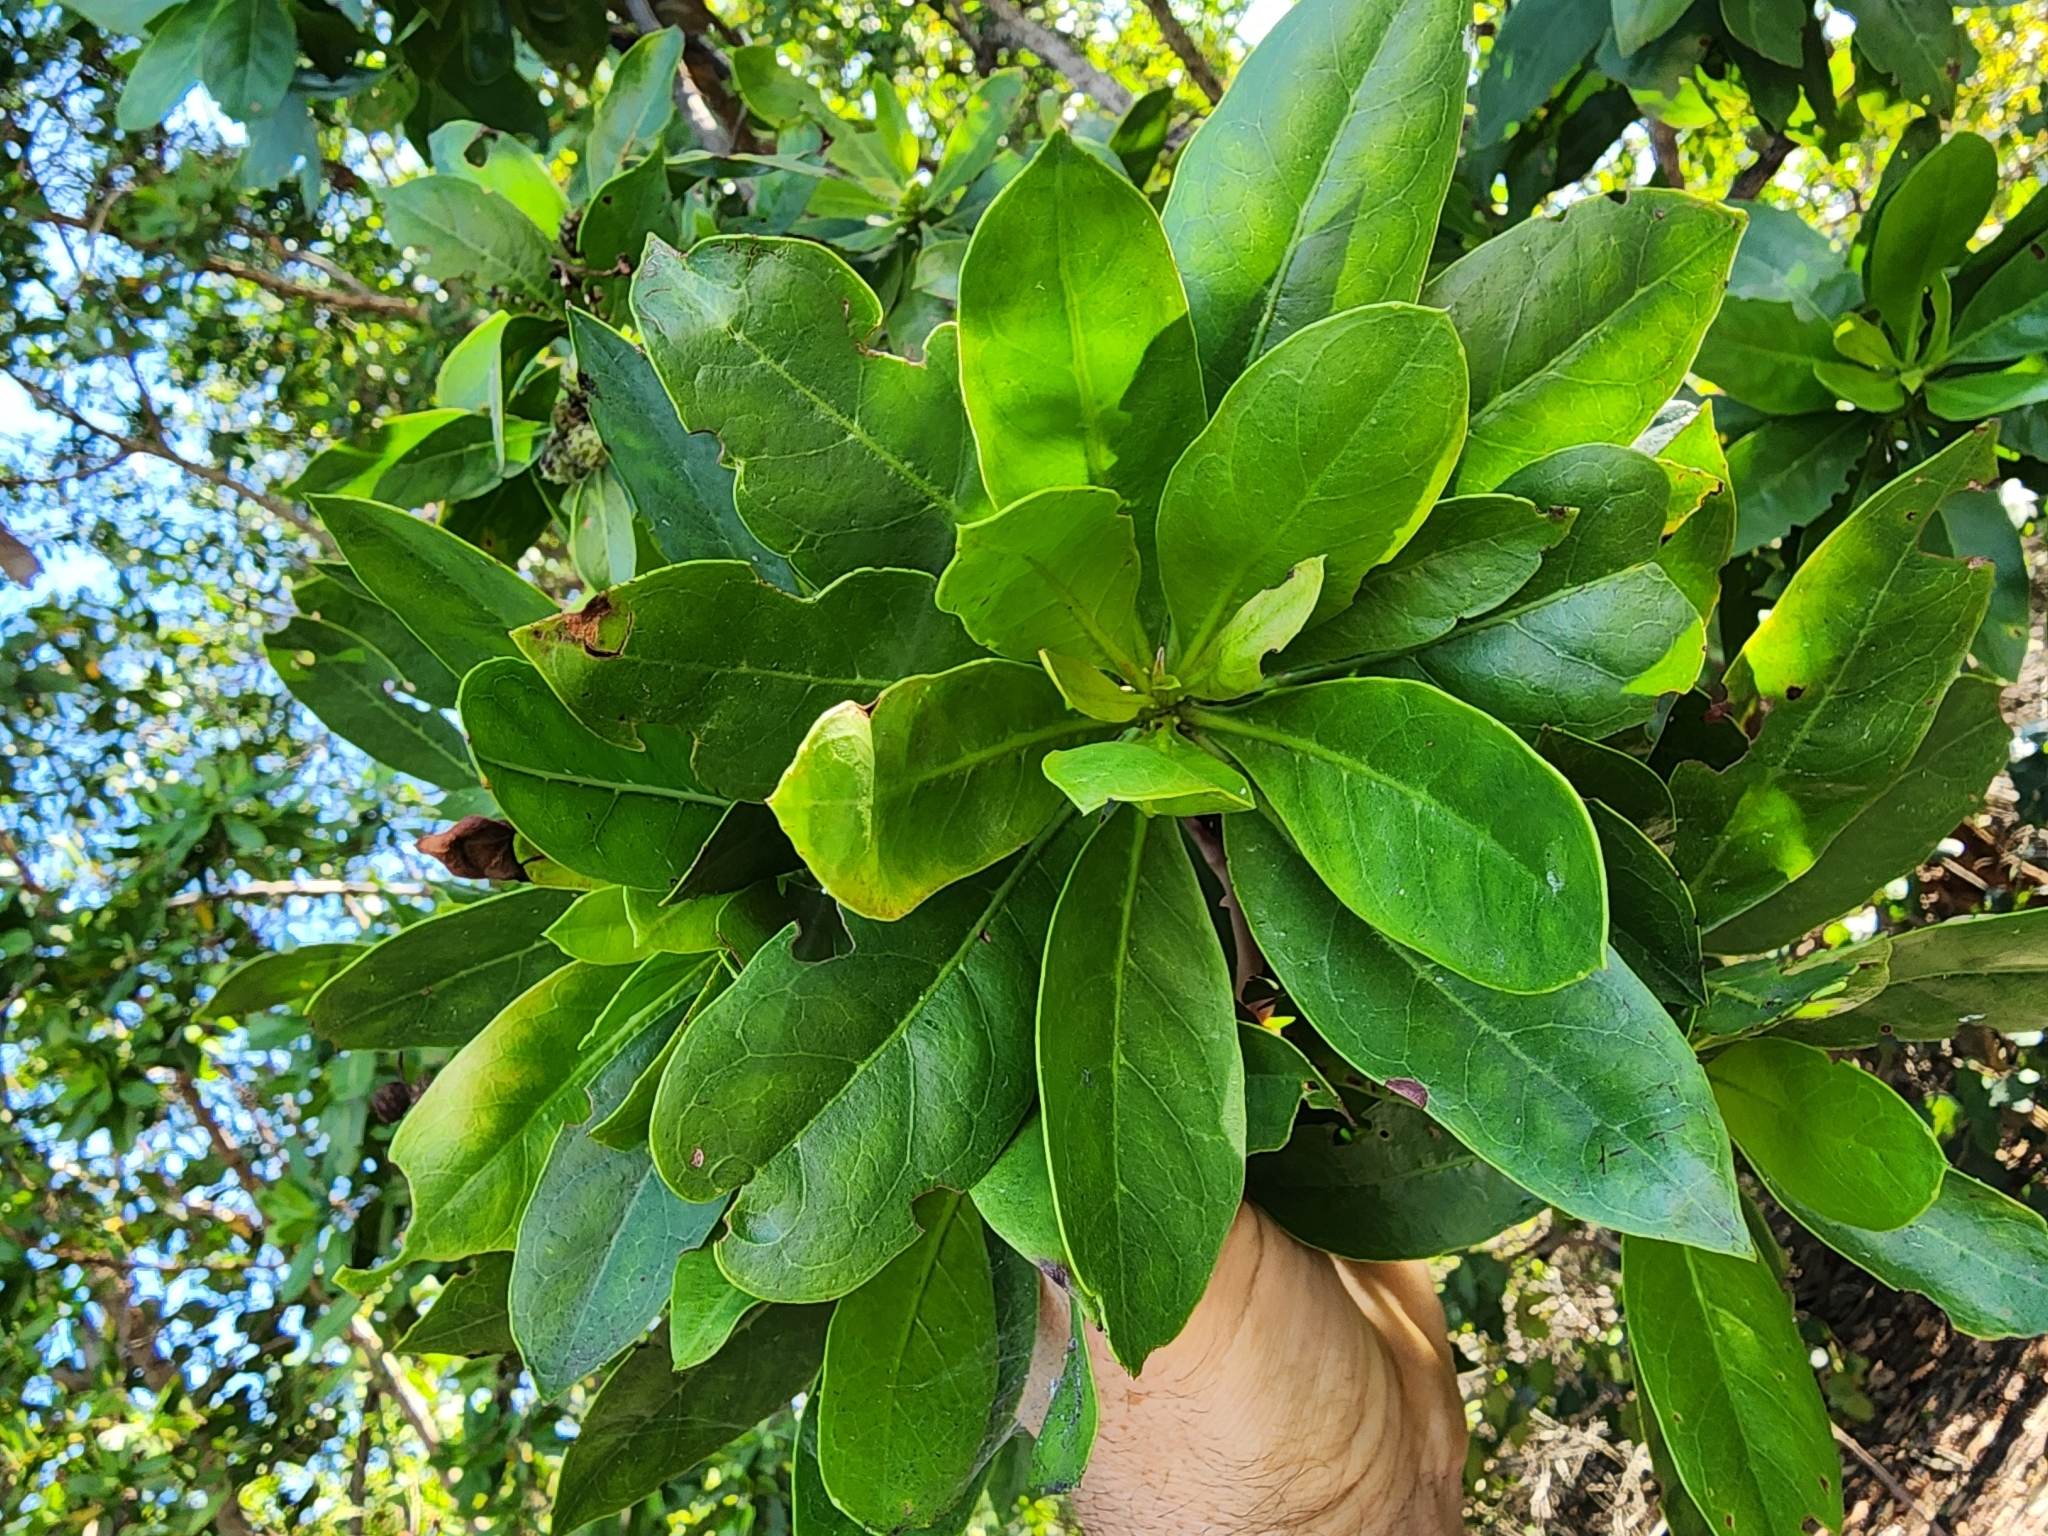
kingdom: Plantae
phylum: Tracheophyta
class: Magnoliopsida
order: Myrtales
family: Combretaceae
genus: Conocarpus
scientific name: Conocarpus erectus
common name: Button mangrove
